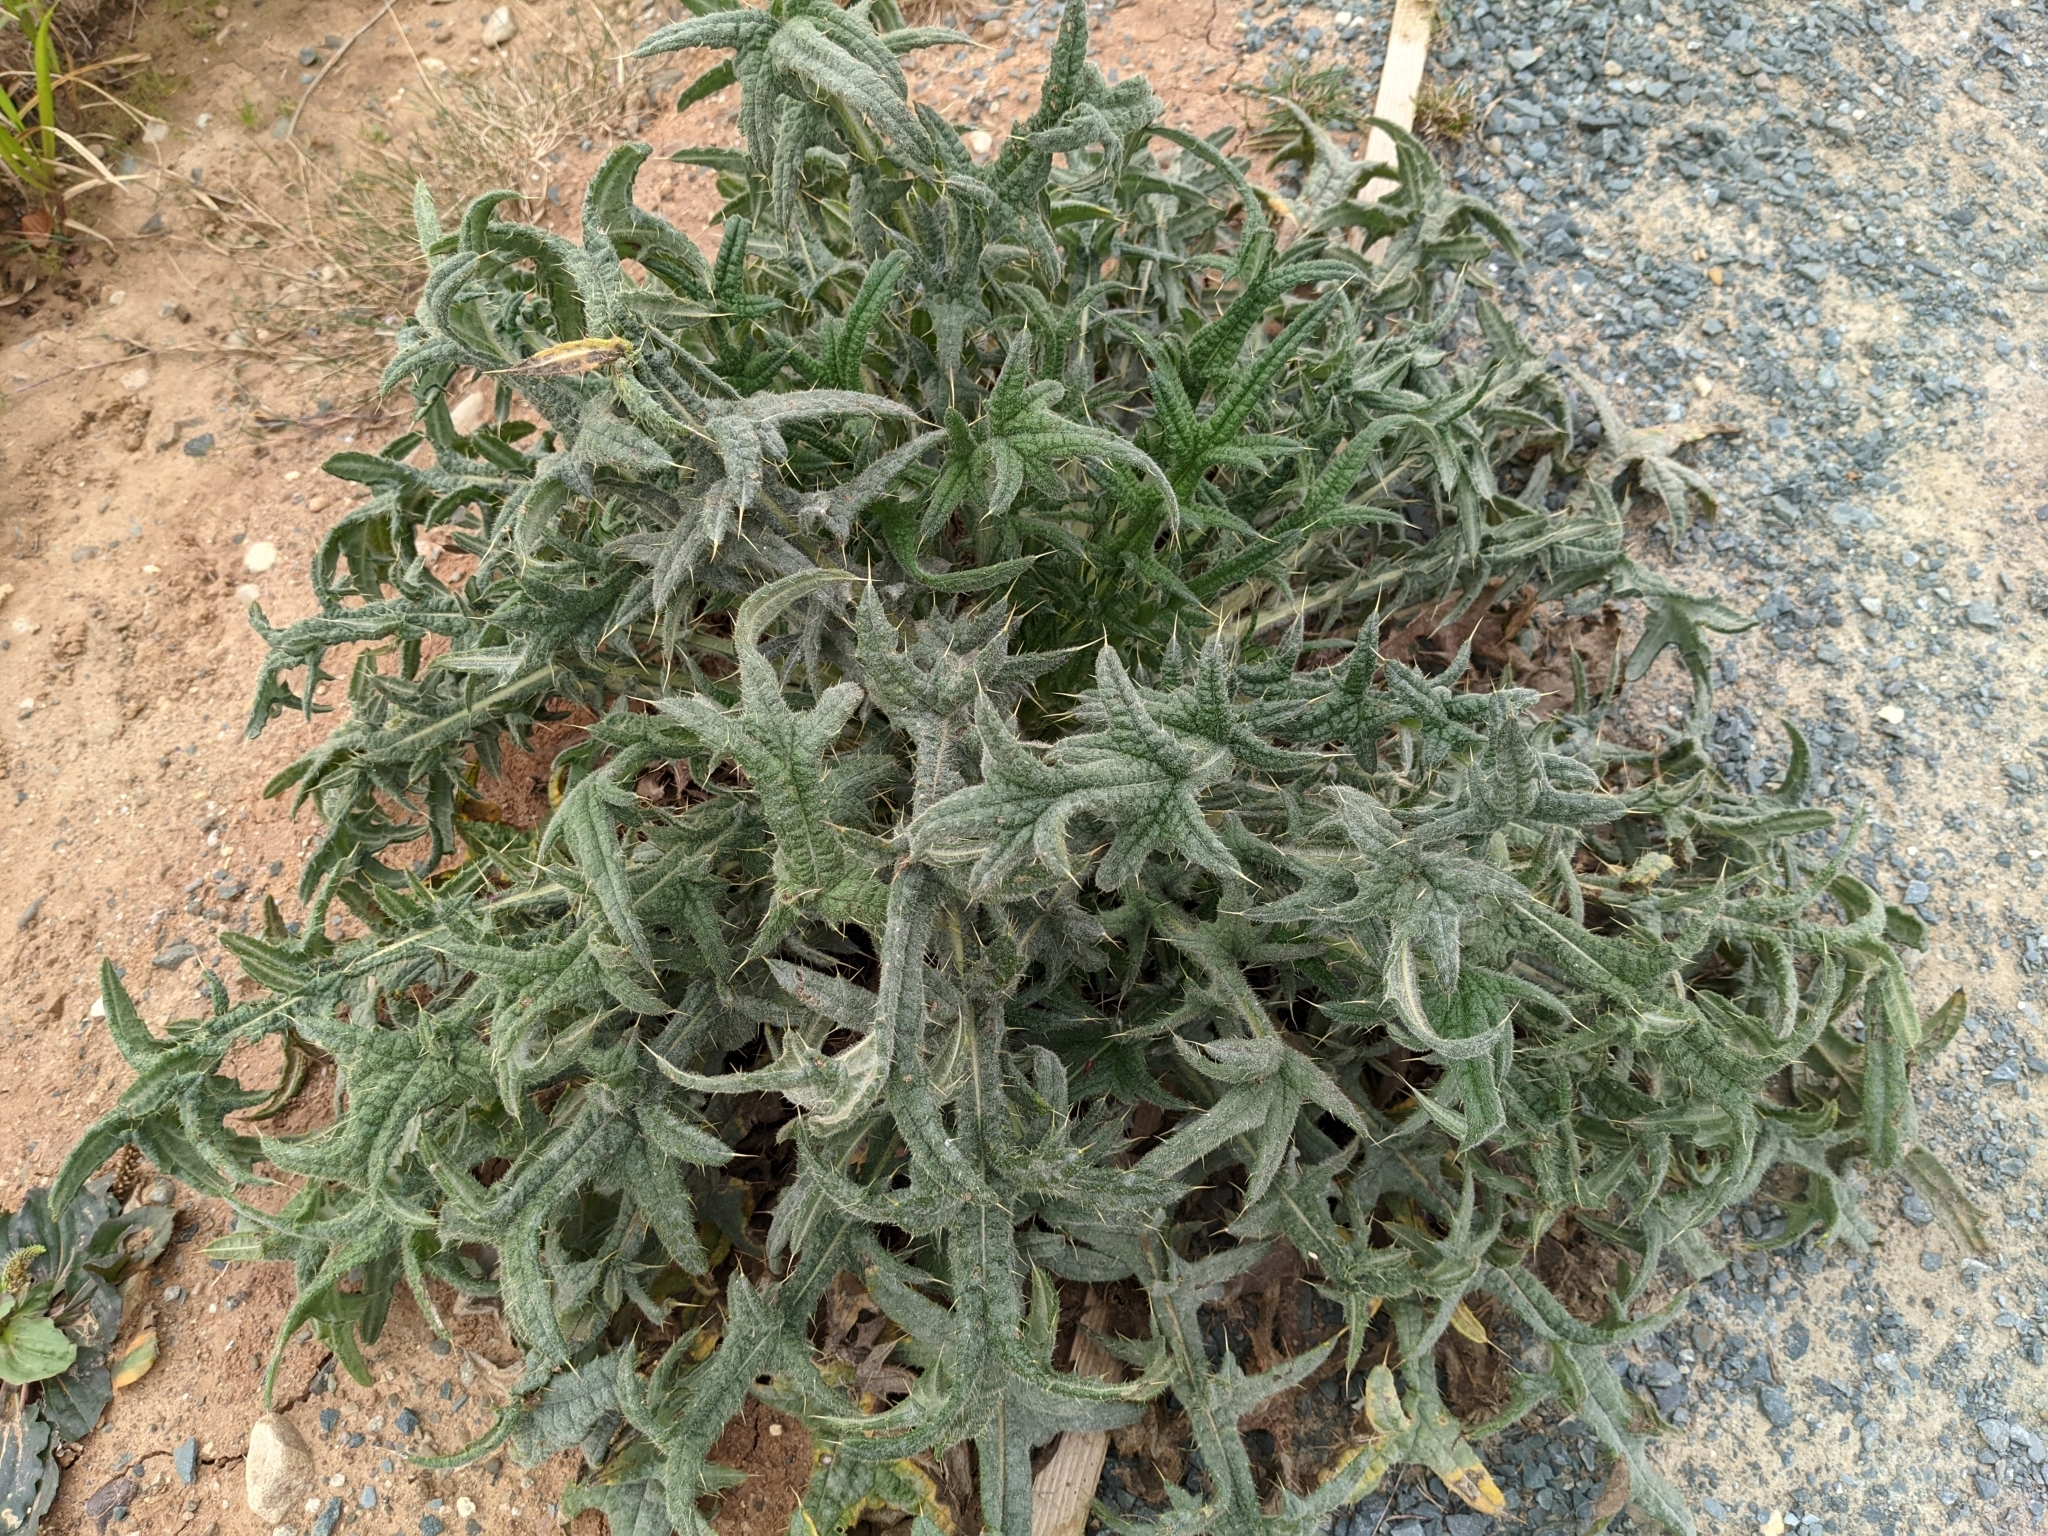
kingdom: Plantae
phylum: Tracheophyta
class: Magnoliopsida
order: Asterales
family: Asteraceae
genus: Cirsium
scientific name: Cirsium vulgare
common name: Bull thistle
